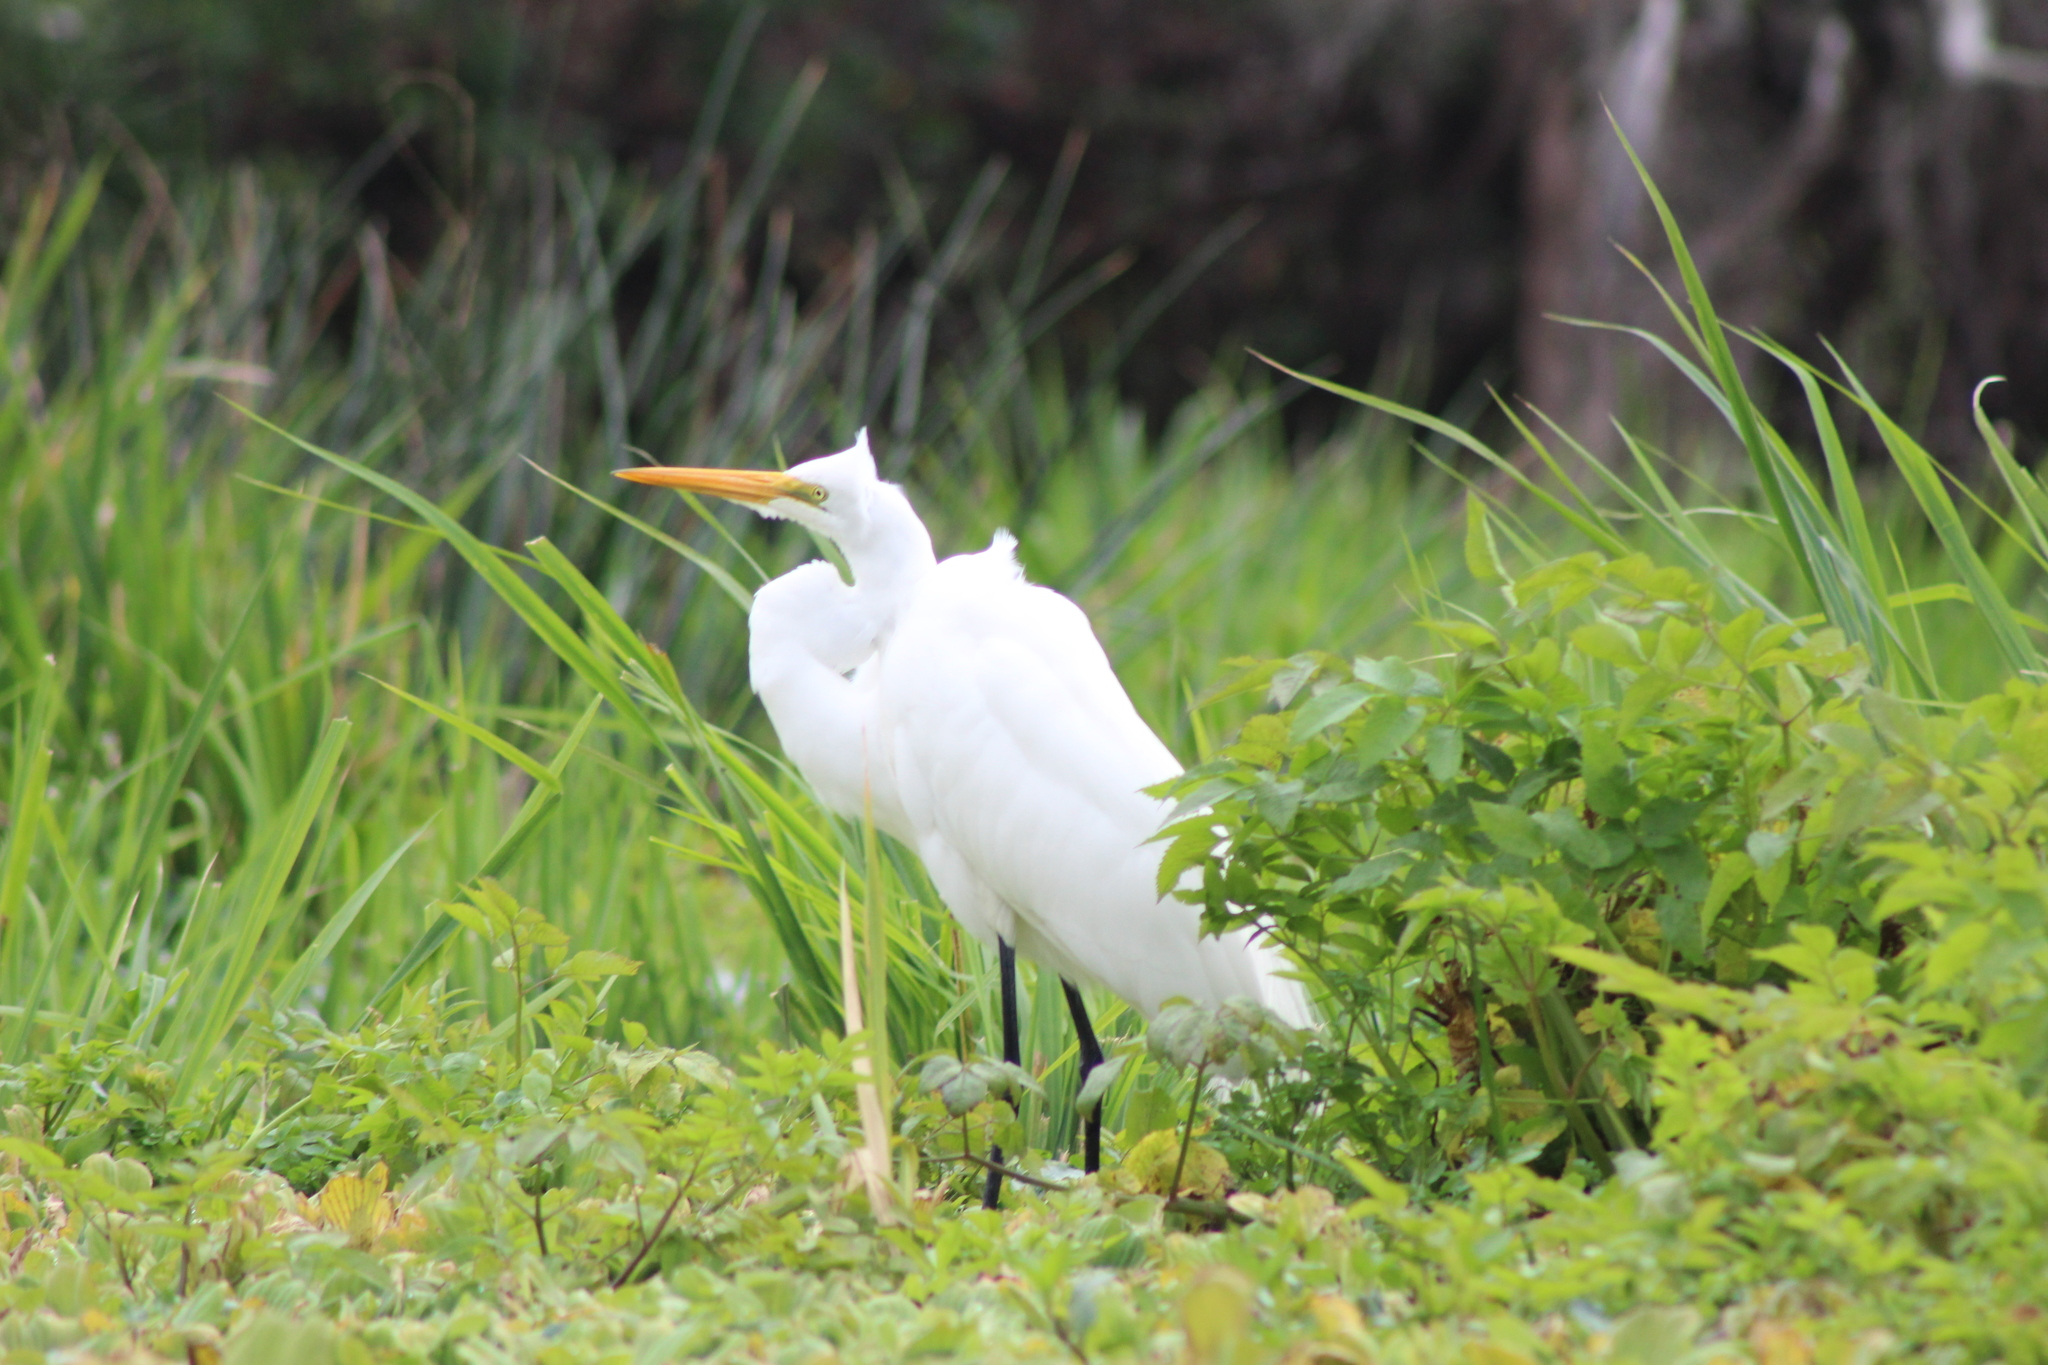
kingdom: Animalia
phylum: Chordata
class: Aves
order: Pelecaniformes
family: Ardeidae
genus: Ardea
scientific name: Ardea alba
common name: Great egret
